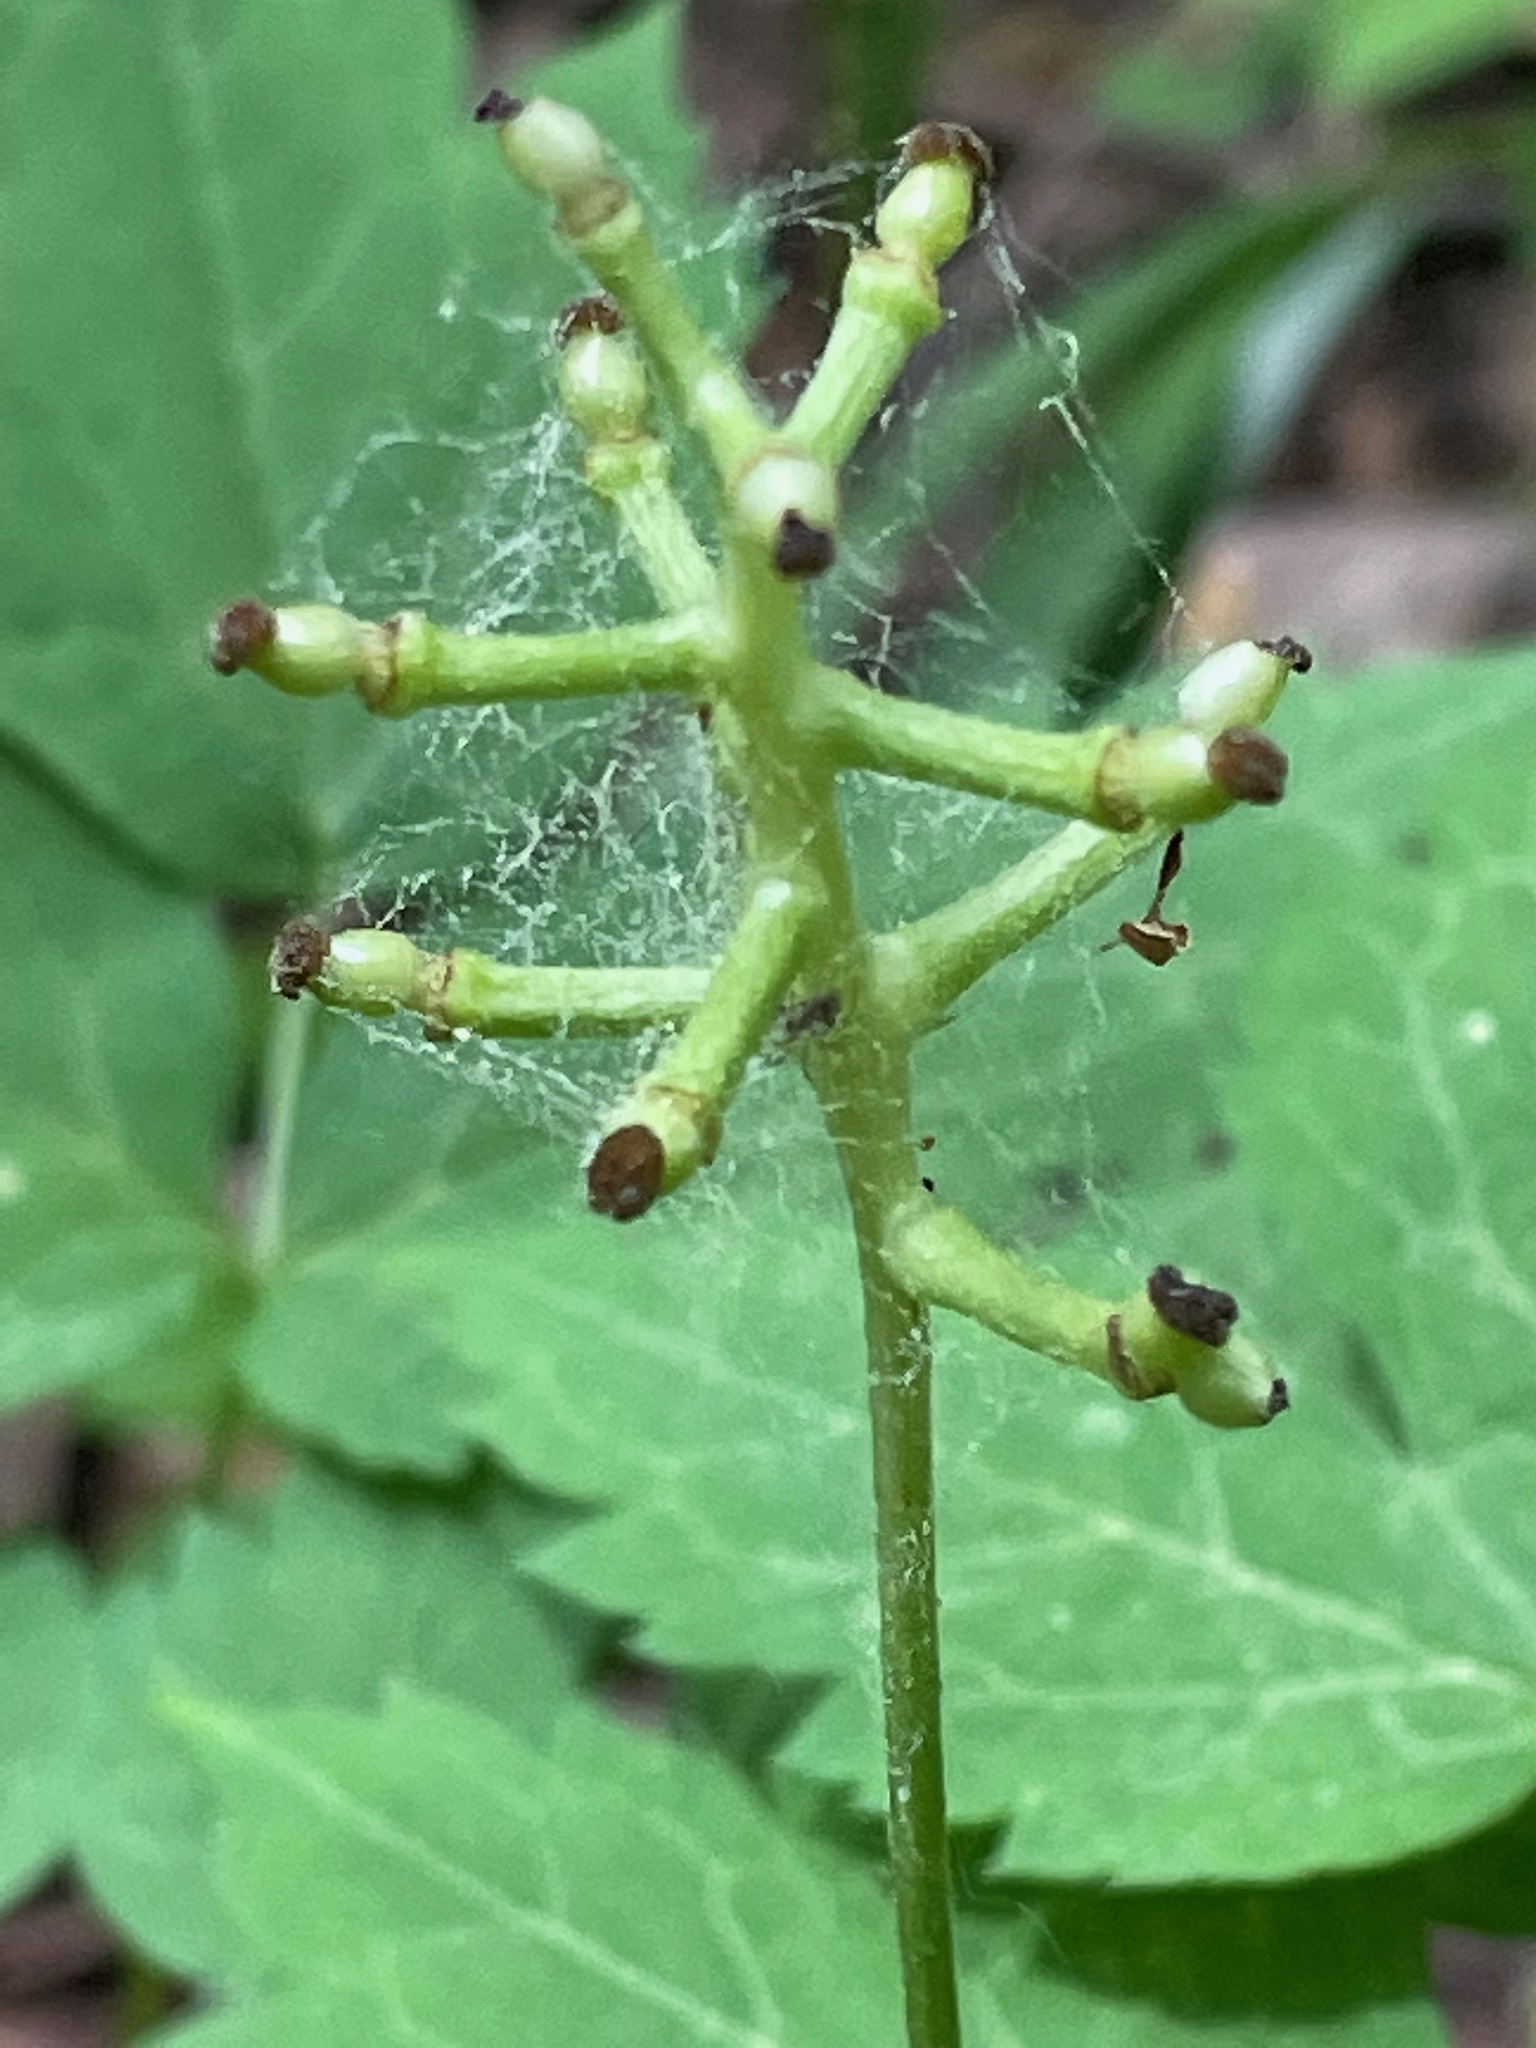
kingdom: Plantae
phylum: Tracheophyta
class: Magnoliopsida
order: Ranunculales
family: Ranunculaceae
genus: Actaea
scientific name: Actaea pachypoda
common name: Doll's-eyes
